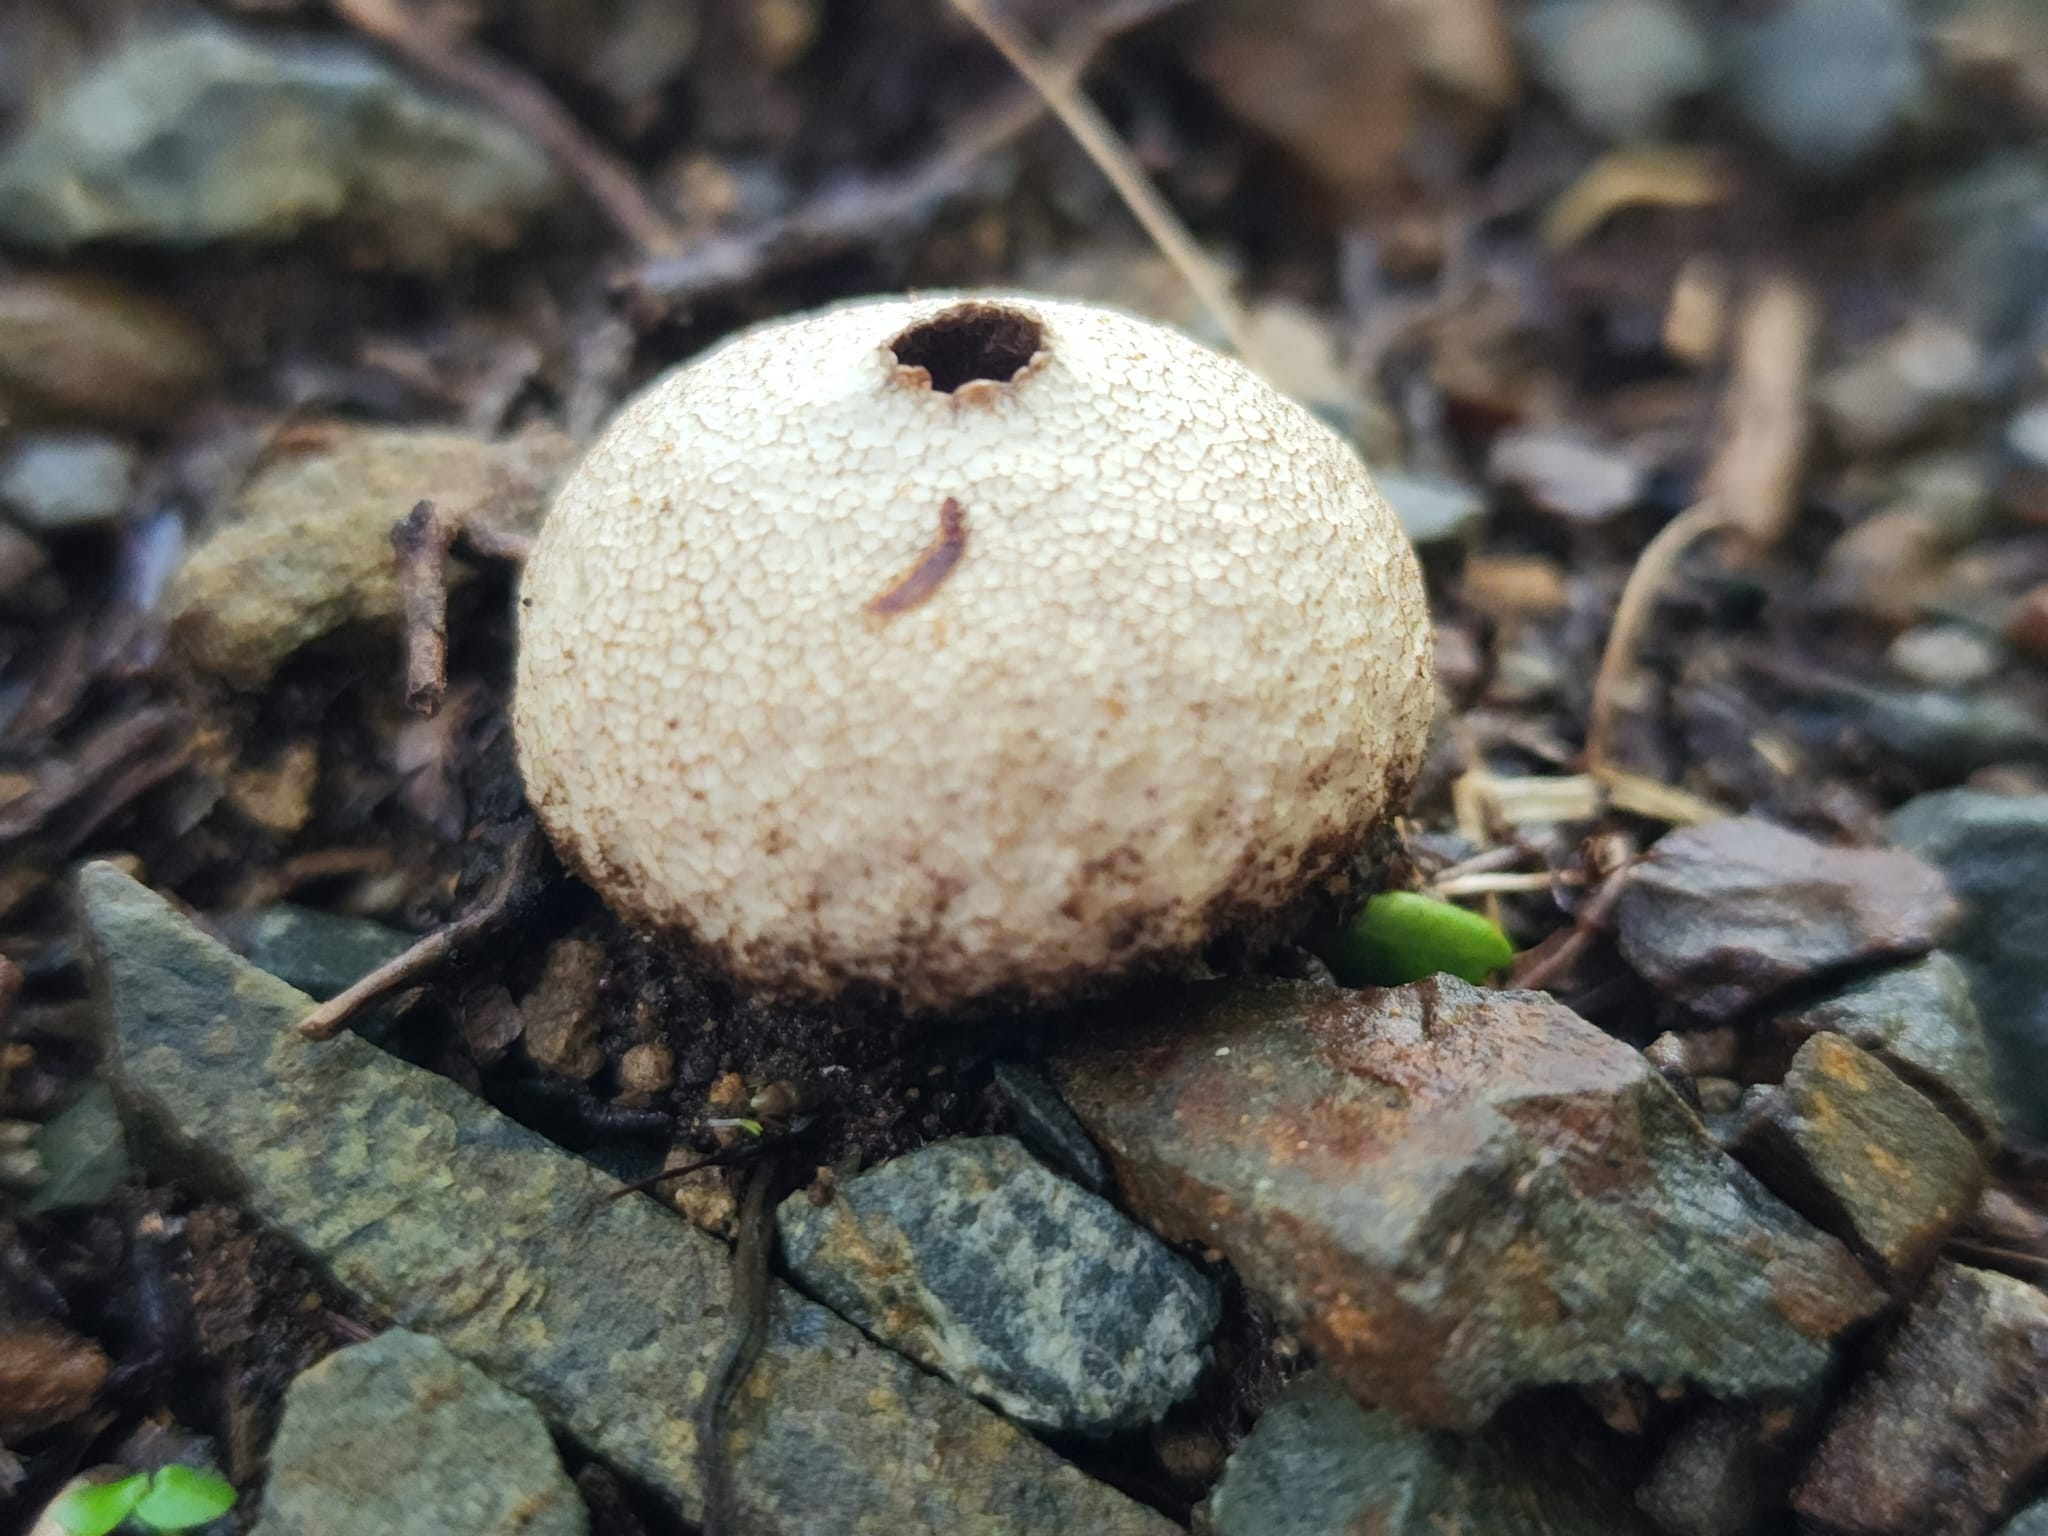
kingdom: Fungi
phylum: Basidiomycota
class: Agaricomycetes
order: Agaricales
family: Lycoperdaceae
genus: Lycoperdon
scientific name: Lycoperdon compactum
